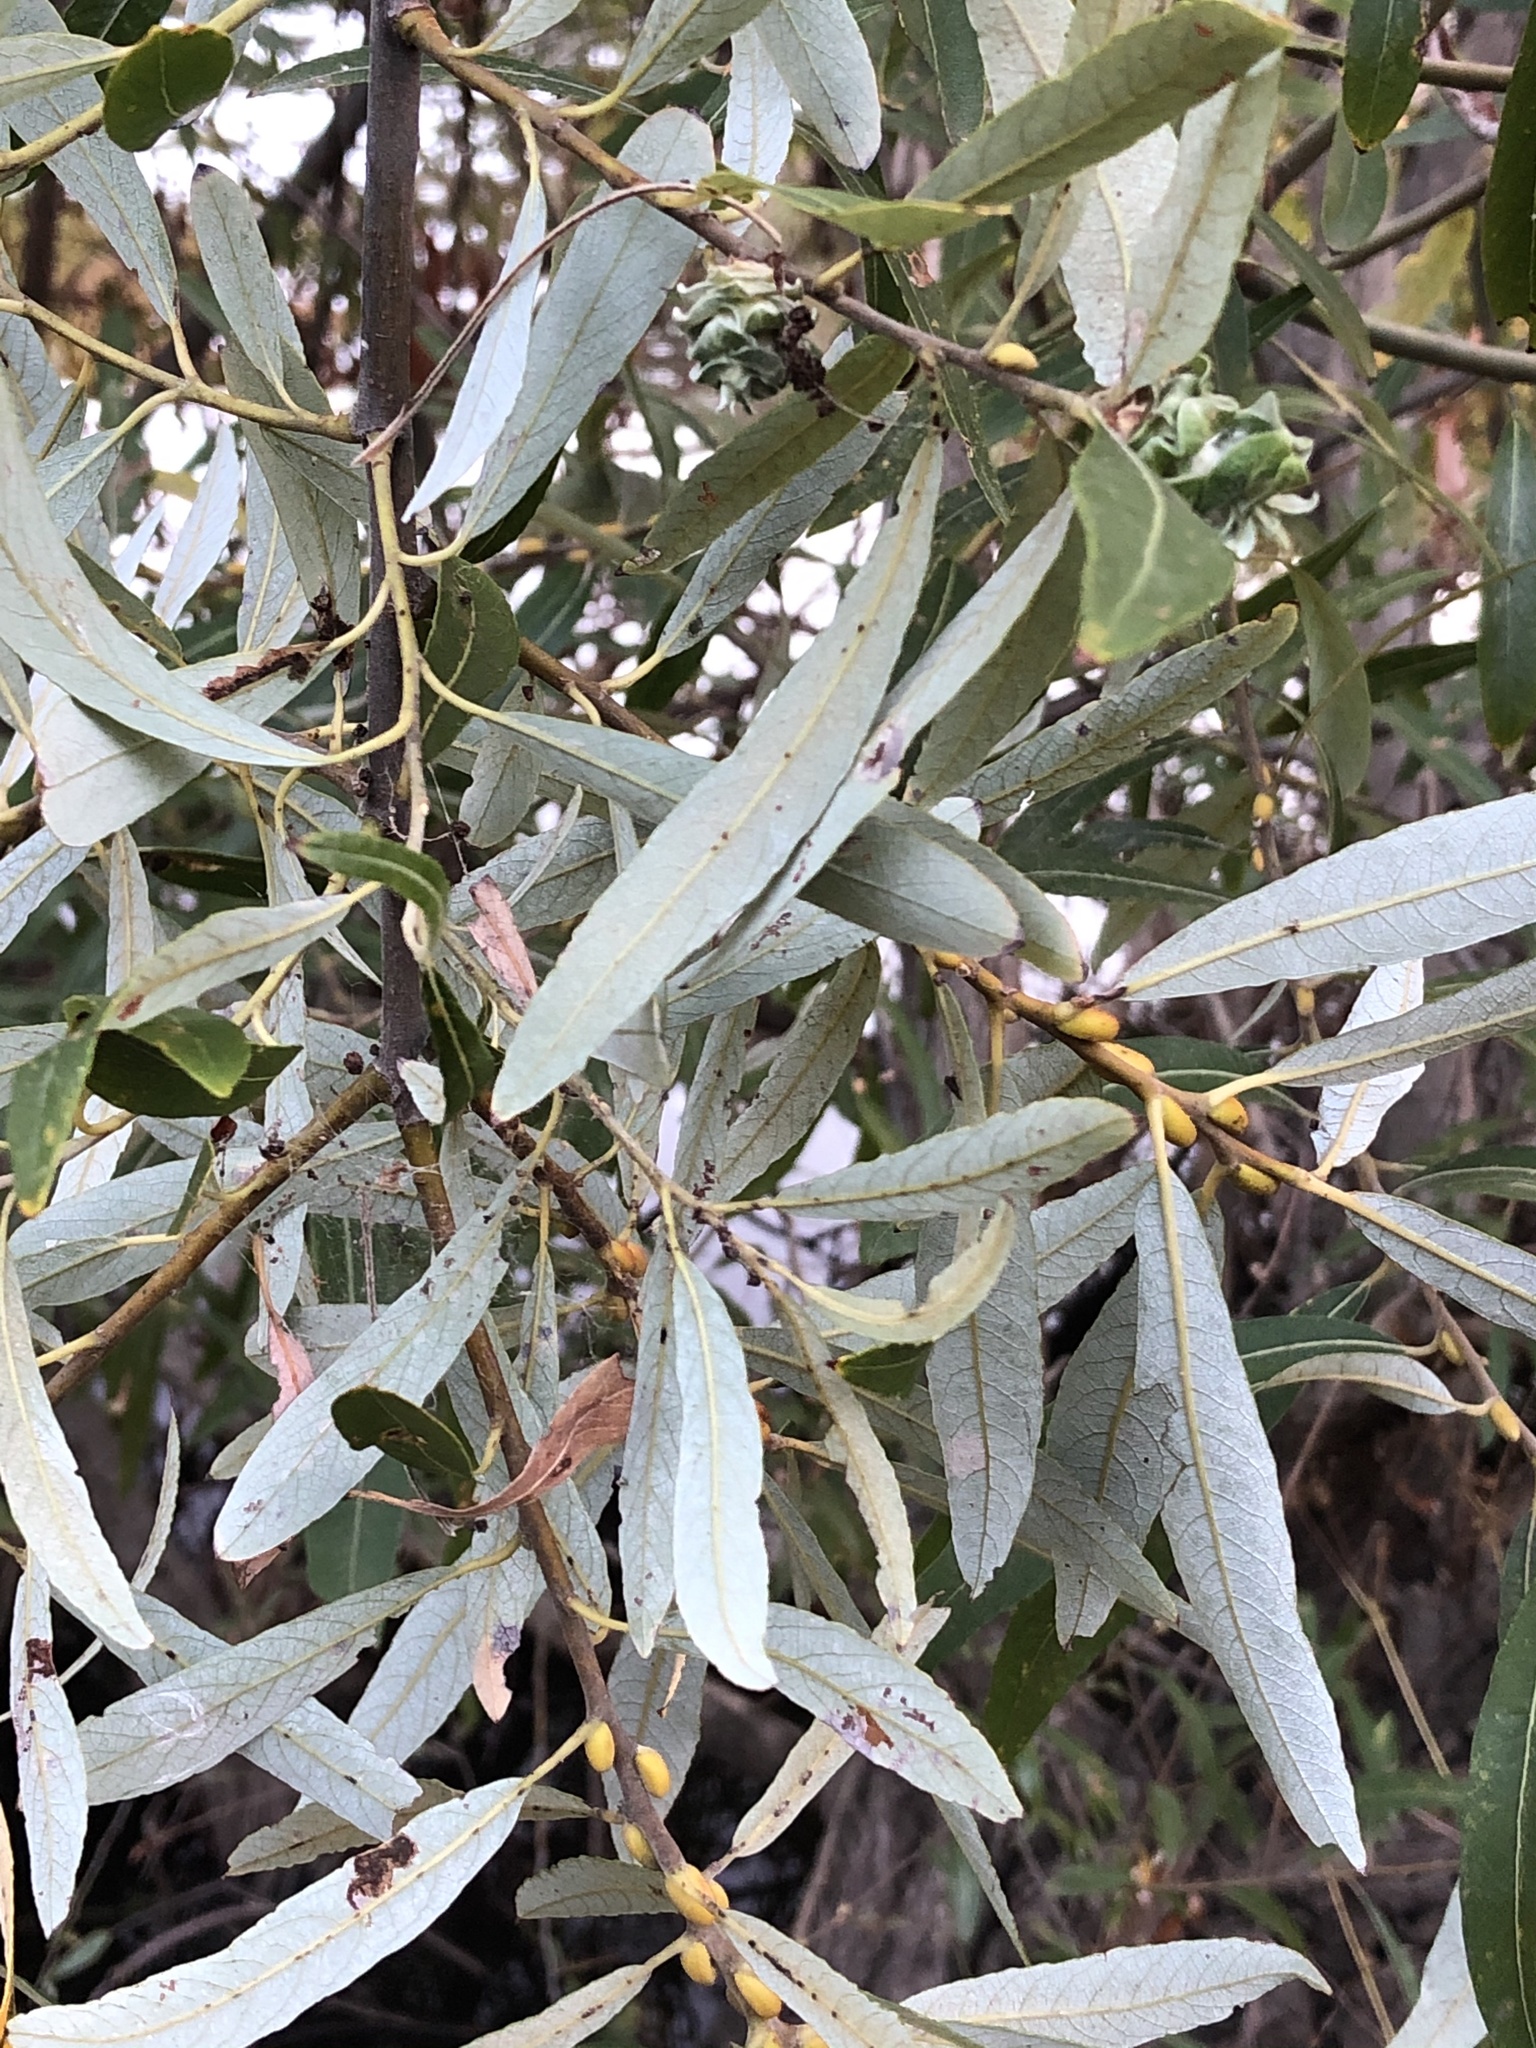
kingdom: Plantae
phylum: Tracheophyta
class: Magnoliopsida
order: Malpighiales
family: Salicaceae
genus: Salix
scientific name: Salix lasiolepis
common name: Arroyo willow
